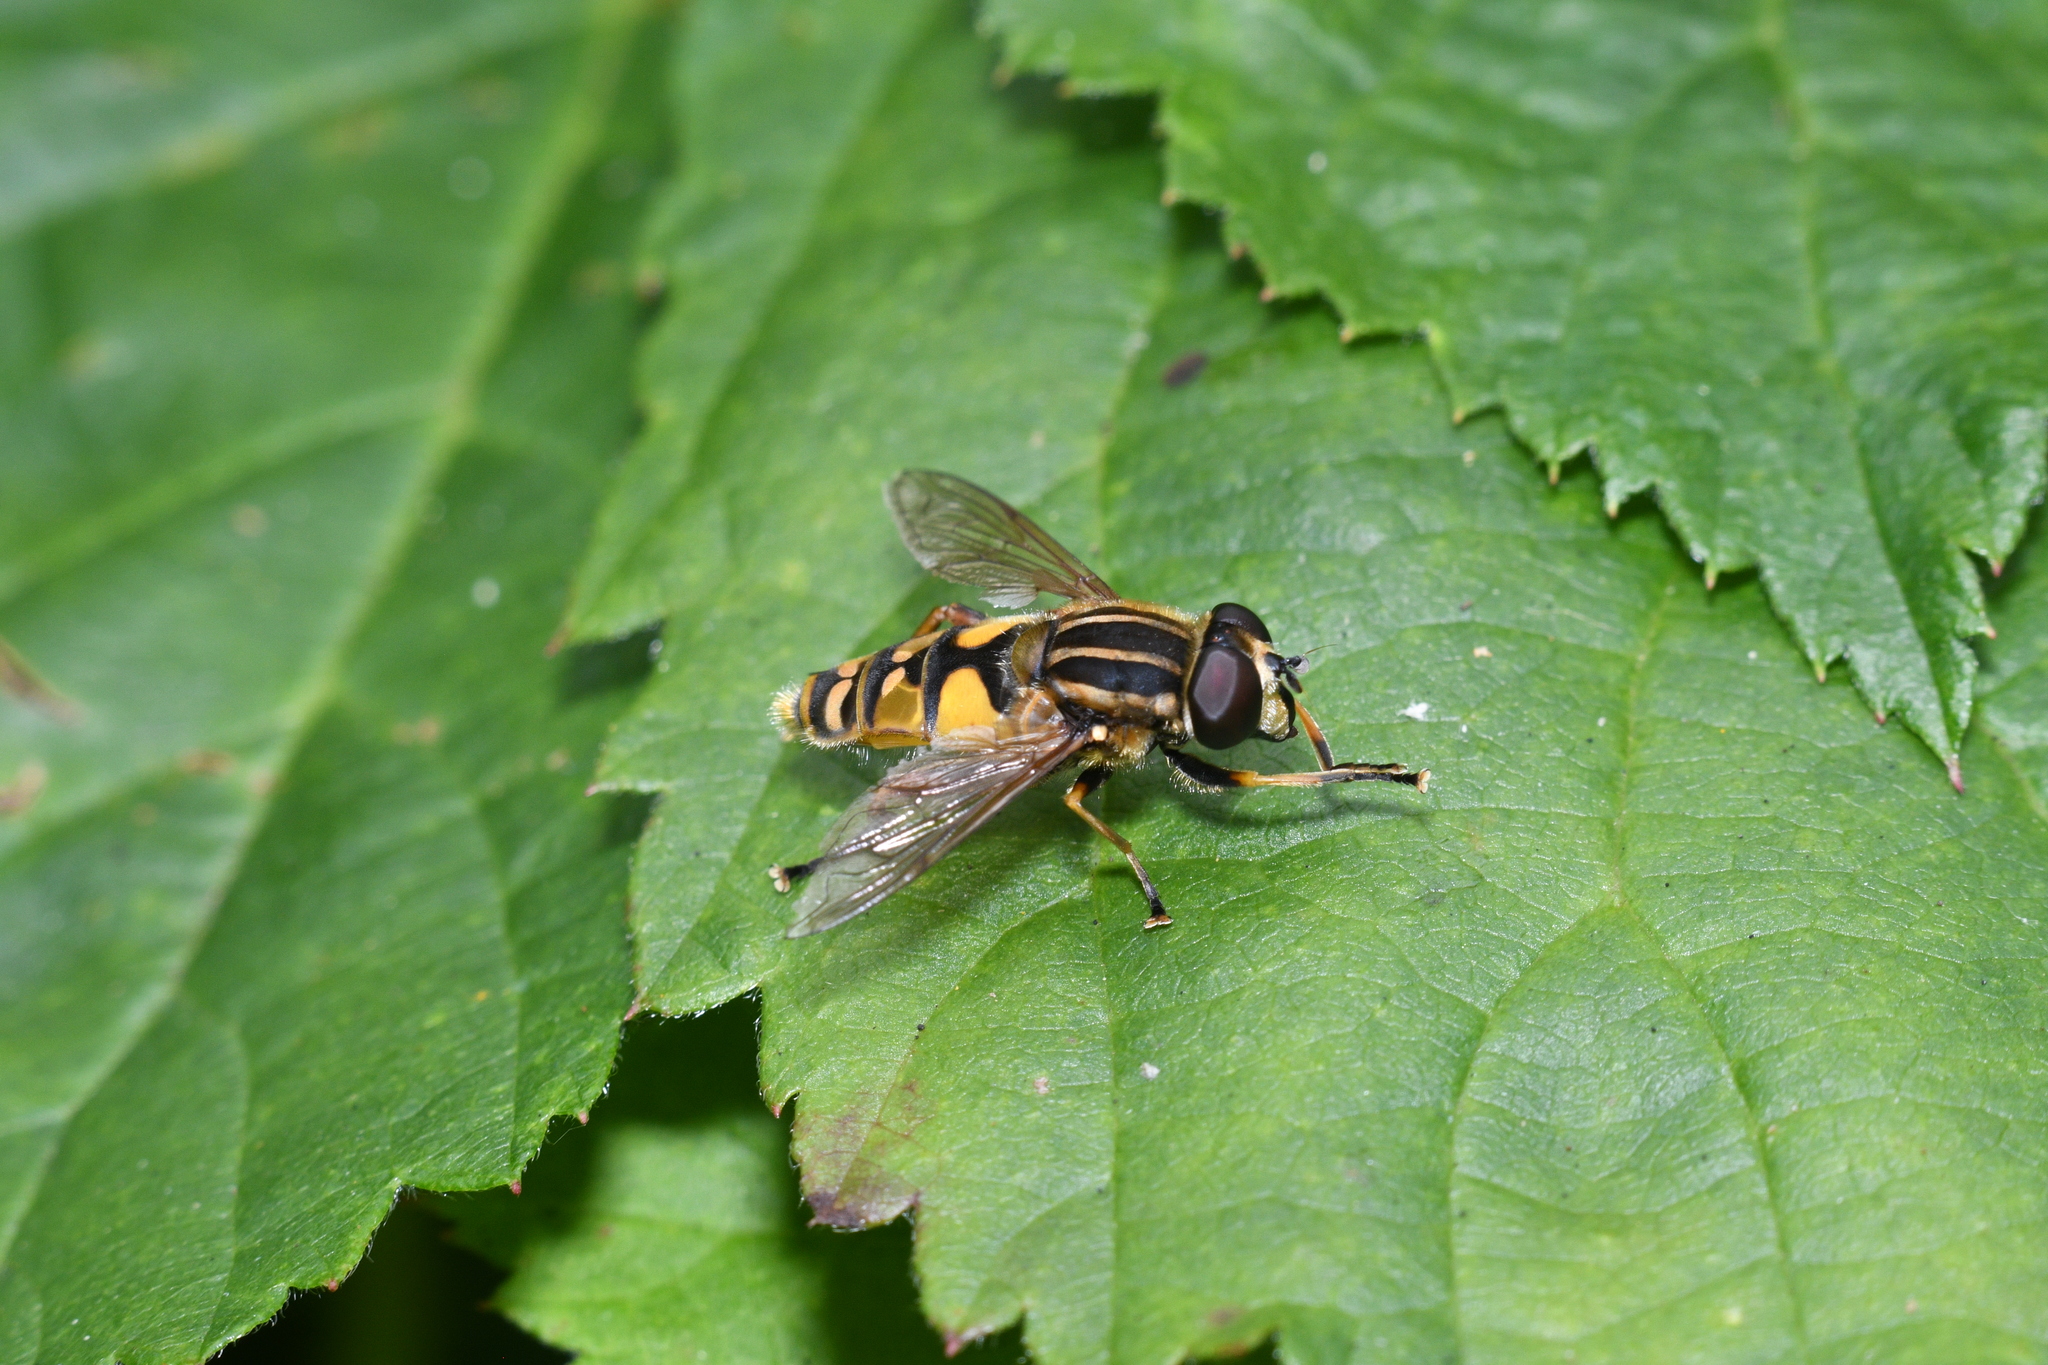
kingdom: Animalia
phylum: Arthropoda
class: Insecta
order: Diptera
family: Syrphidae
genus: Helophilus
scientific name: Helophilus pendulus
